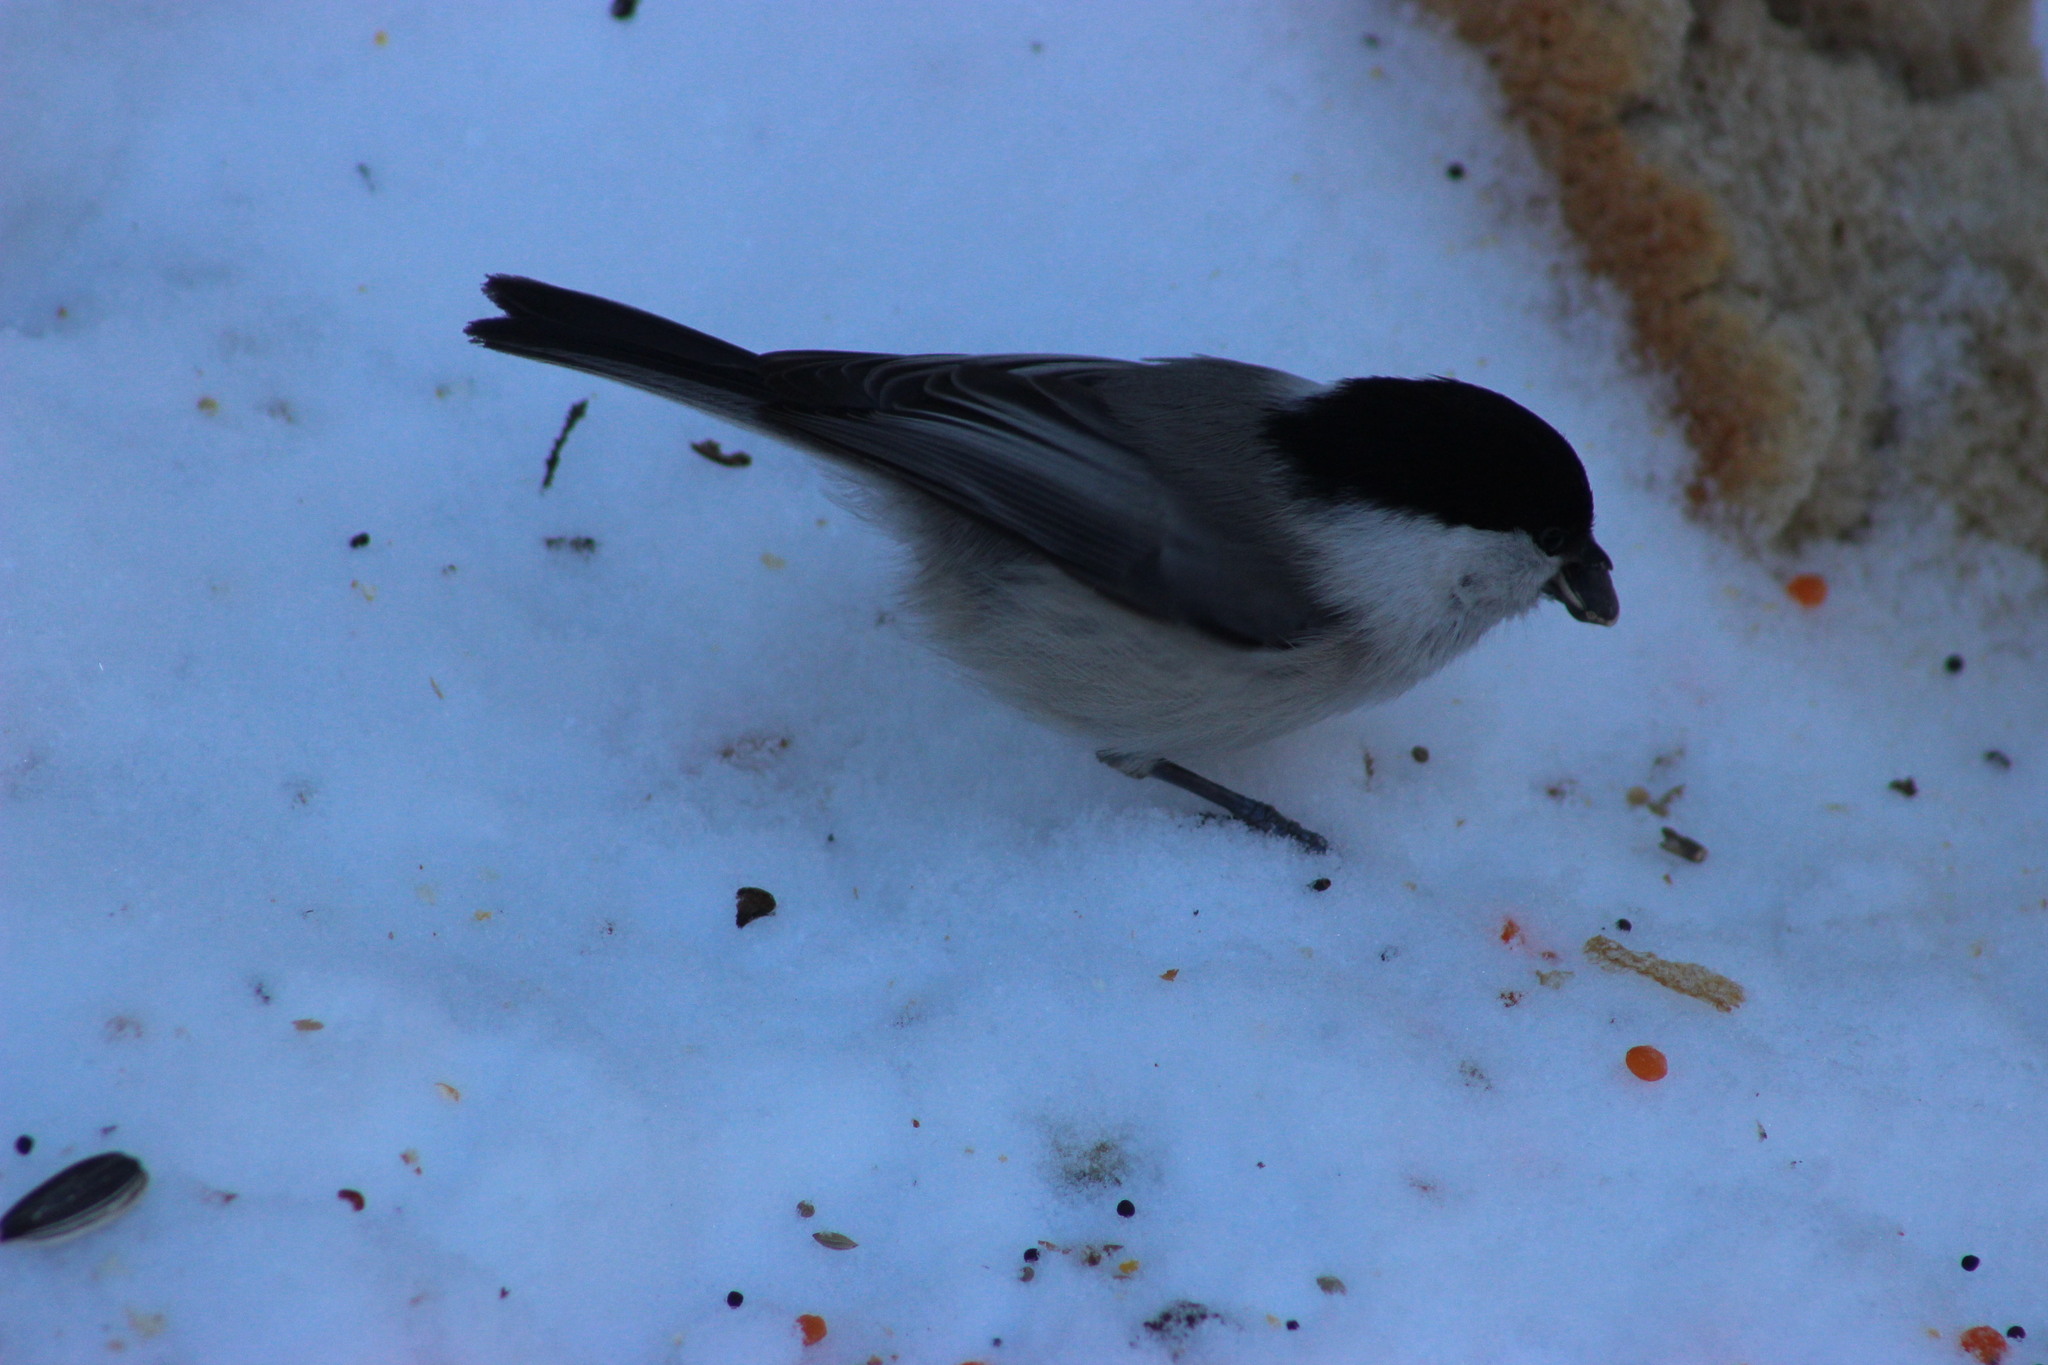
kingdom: Animalia
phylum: Chordata
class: Aves
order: Passeriformes
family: Paridae
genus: Poecile
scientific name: Poecile montanus
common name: Willow tit
